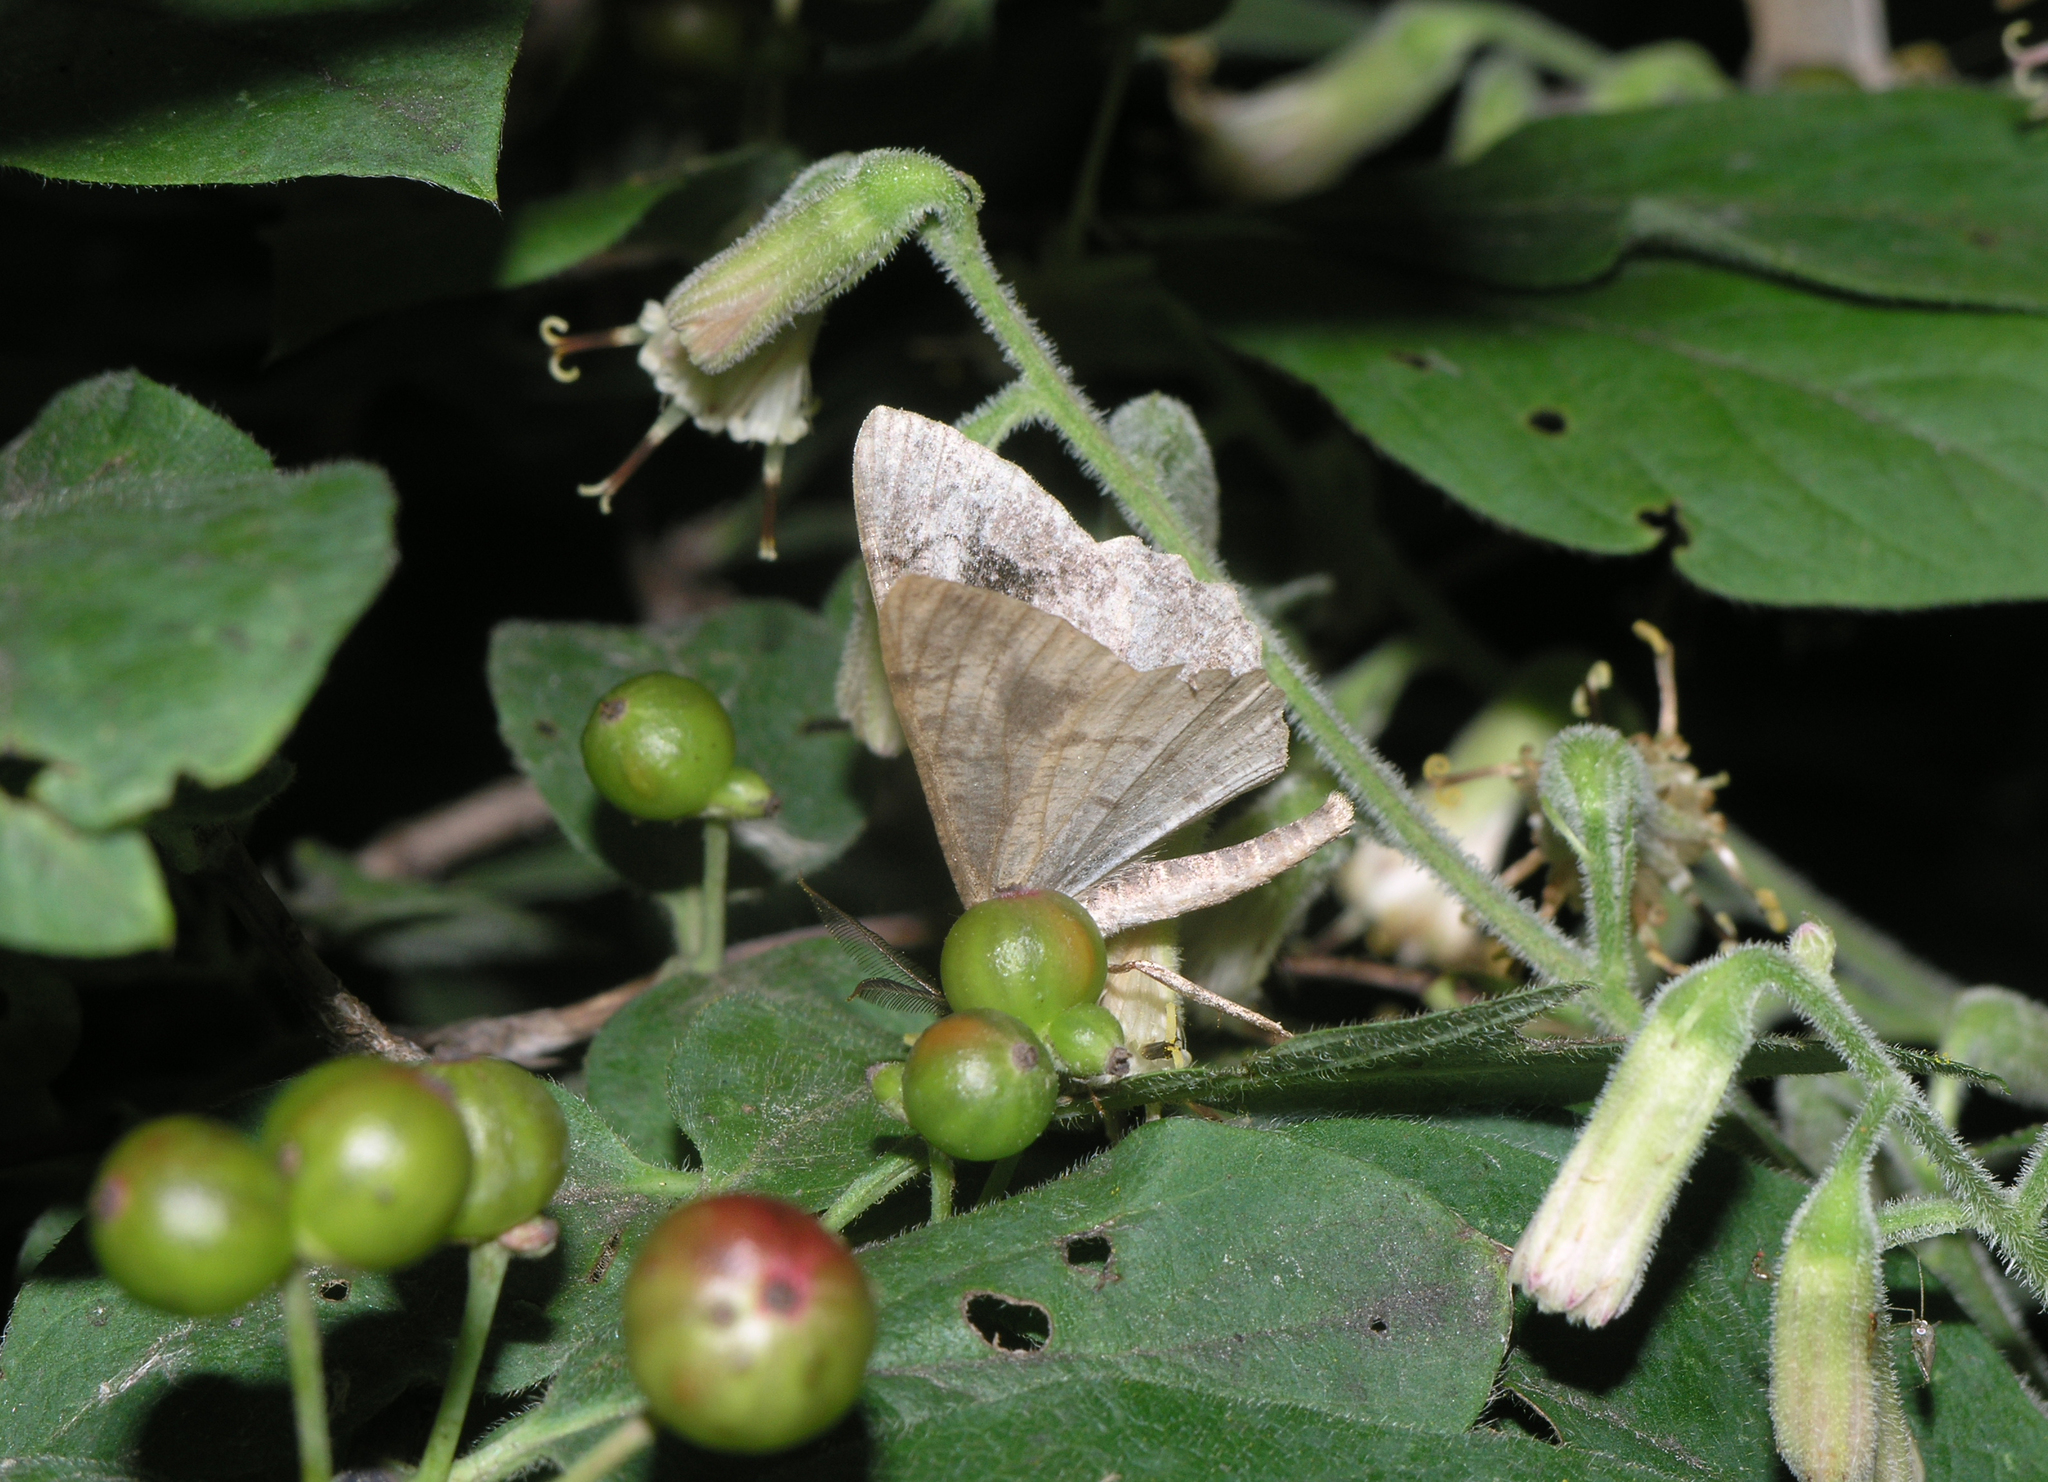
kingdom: Animalia
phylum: Arthropoda
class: Insecta
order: Lepidoptera
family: Geometridae
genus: Alcis
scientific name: Alcis deversata
